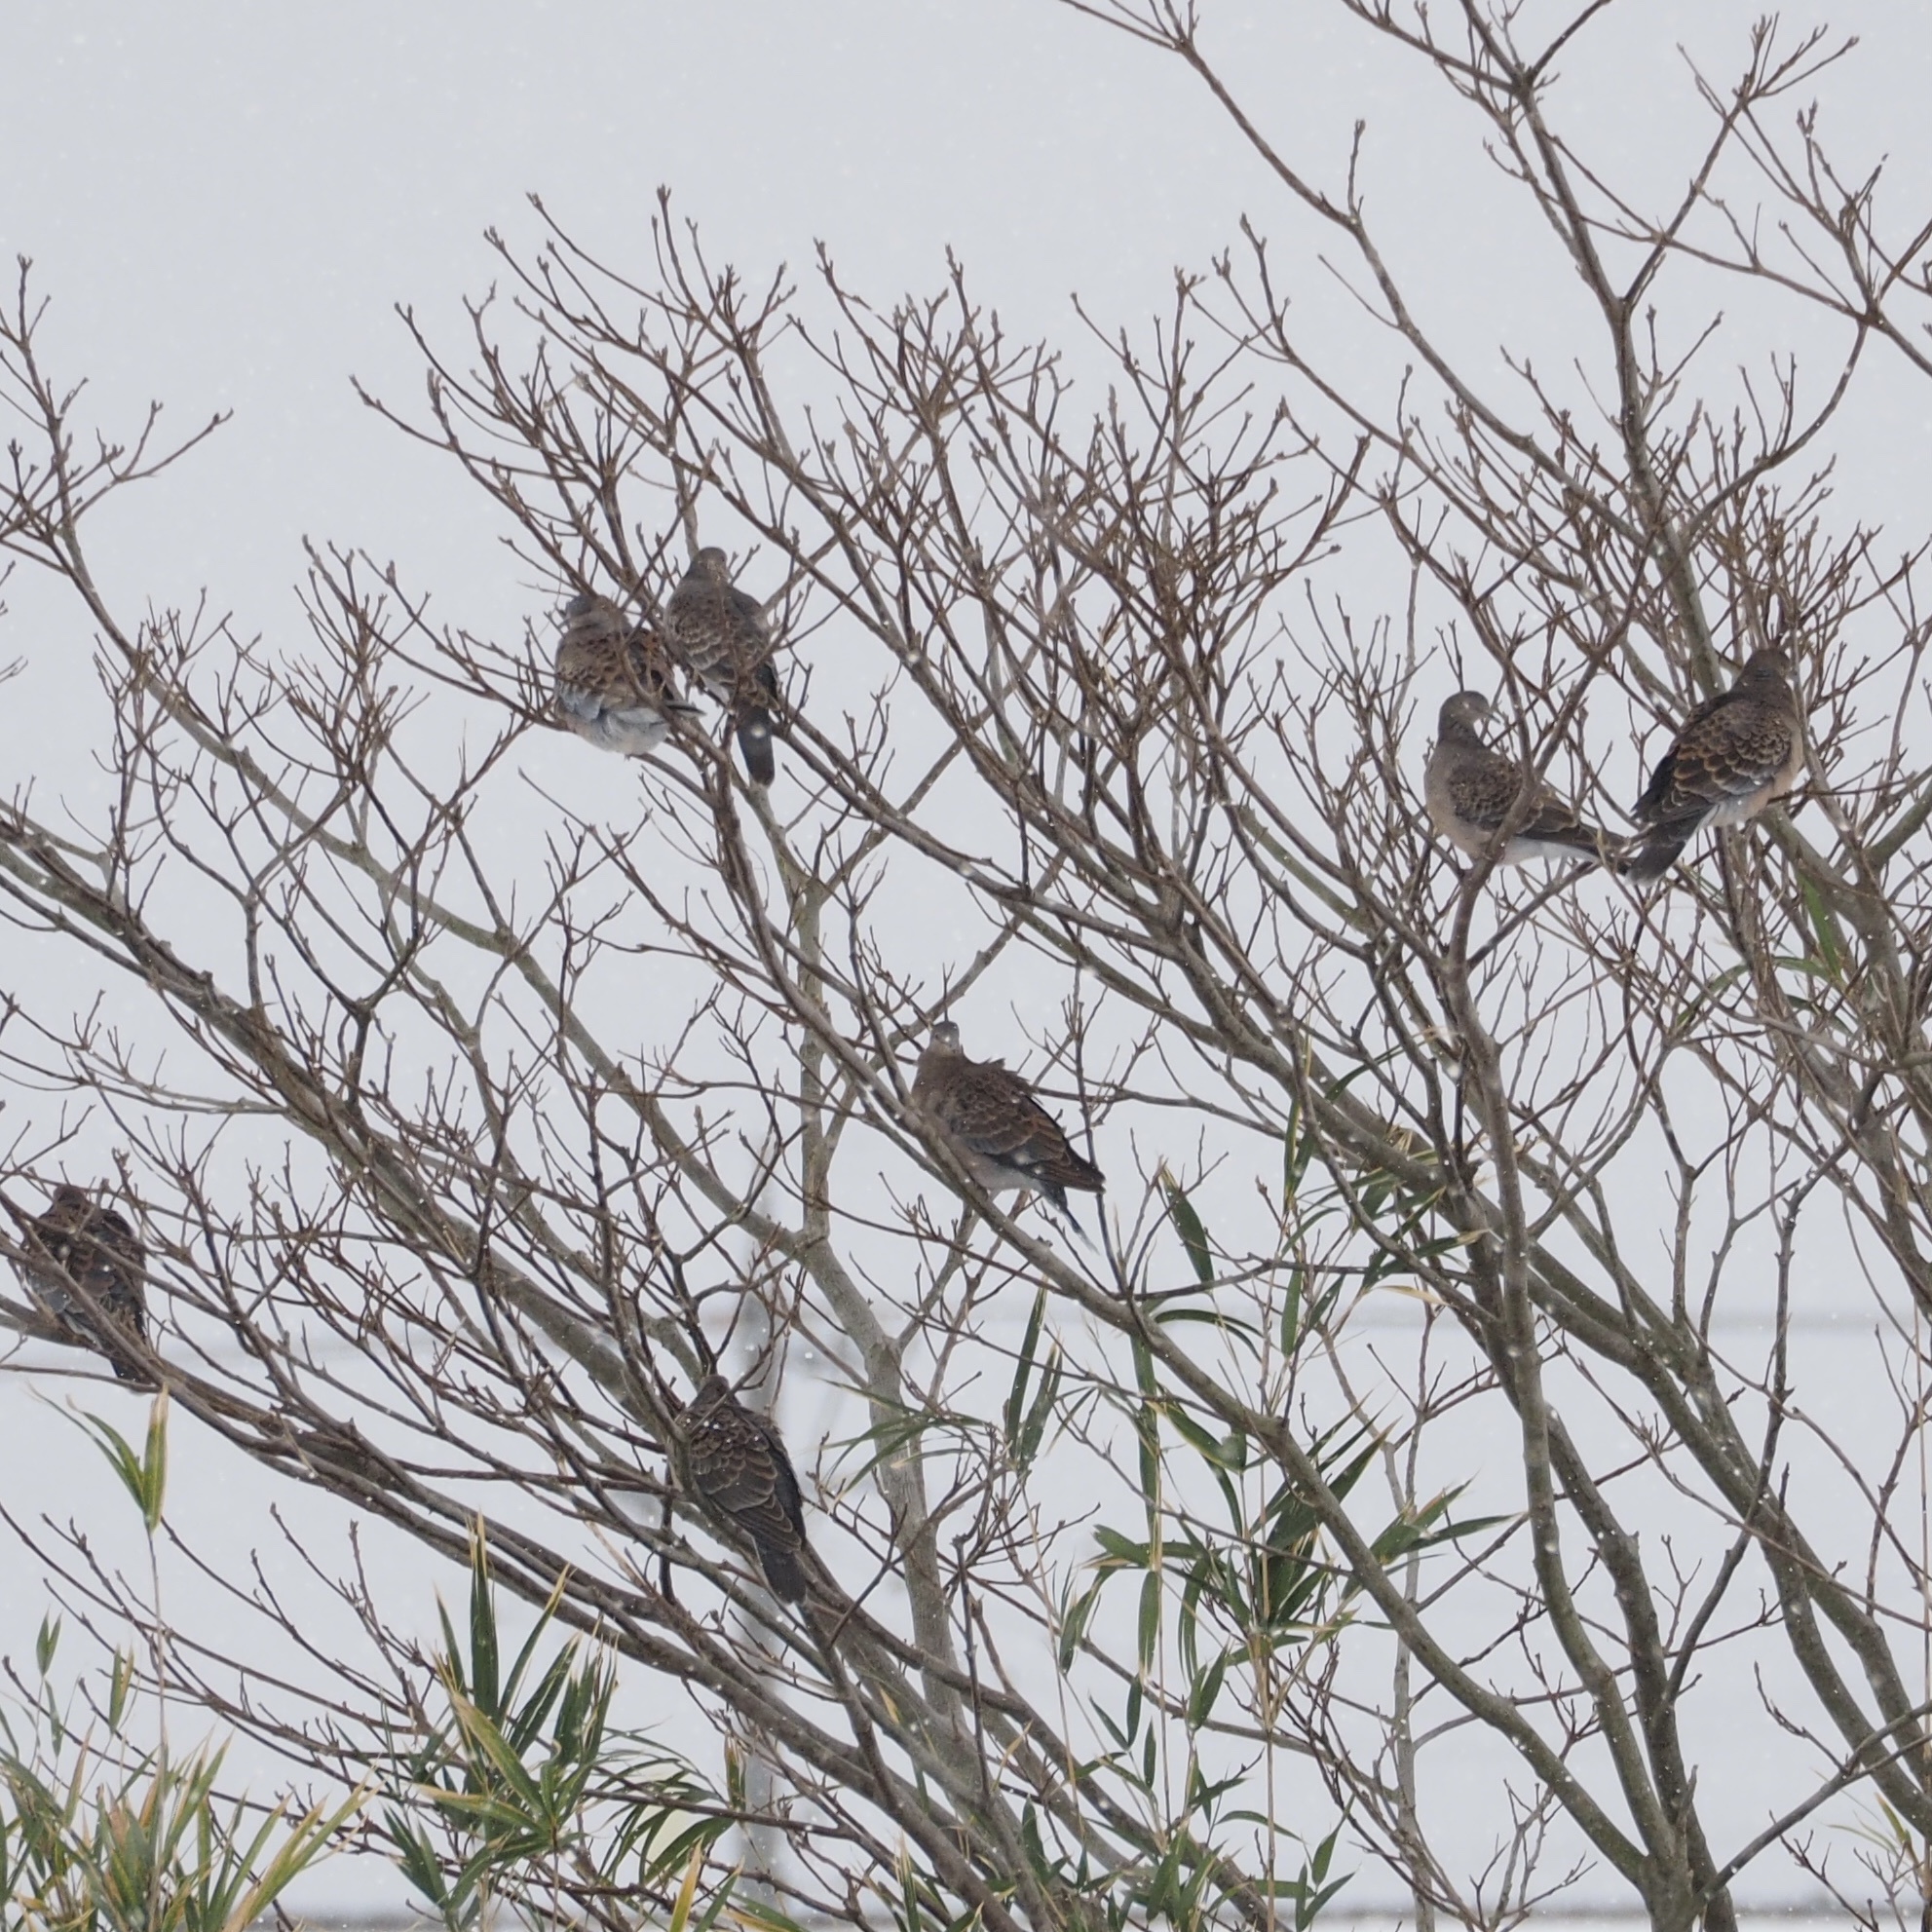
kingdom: Animalia
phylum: Chordata
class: Aves
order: Columbiformes
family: Columbidae
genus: Streptopelia
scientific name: Streptopelia orientalis
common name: Oriental turtle dove
